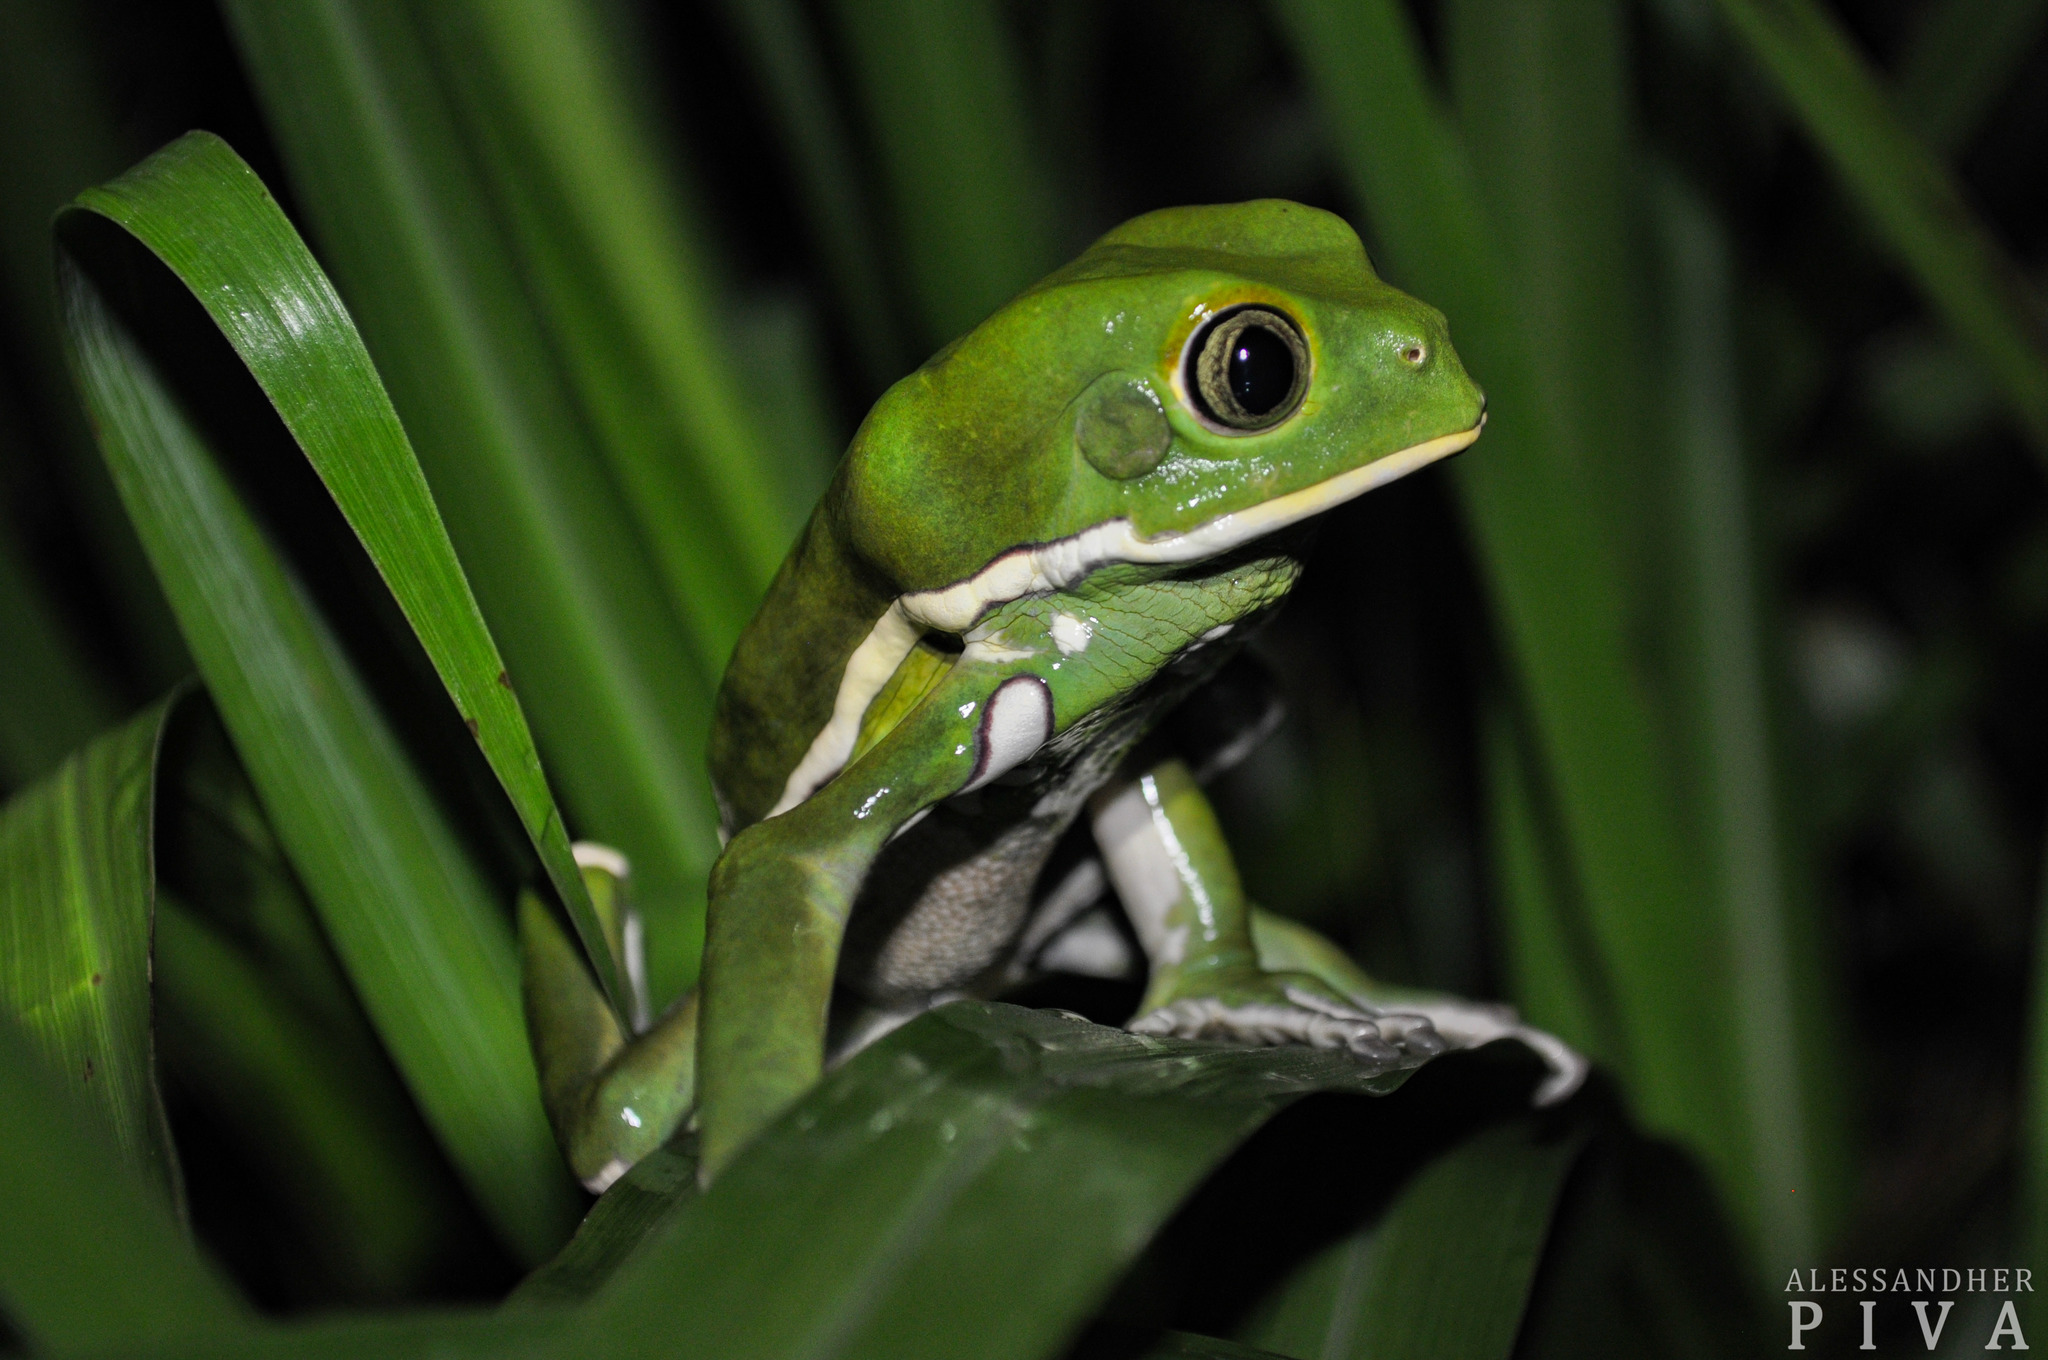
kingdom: Animalia
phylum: Chordata
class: Amphibia
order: Anura
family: Phyllomedusidae
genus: Phyllomedusa
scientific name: Phyllomedusa sauvagii
